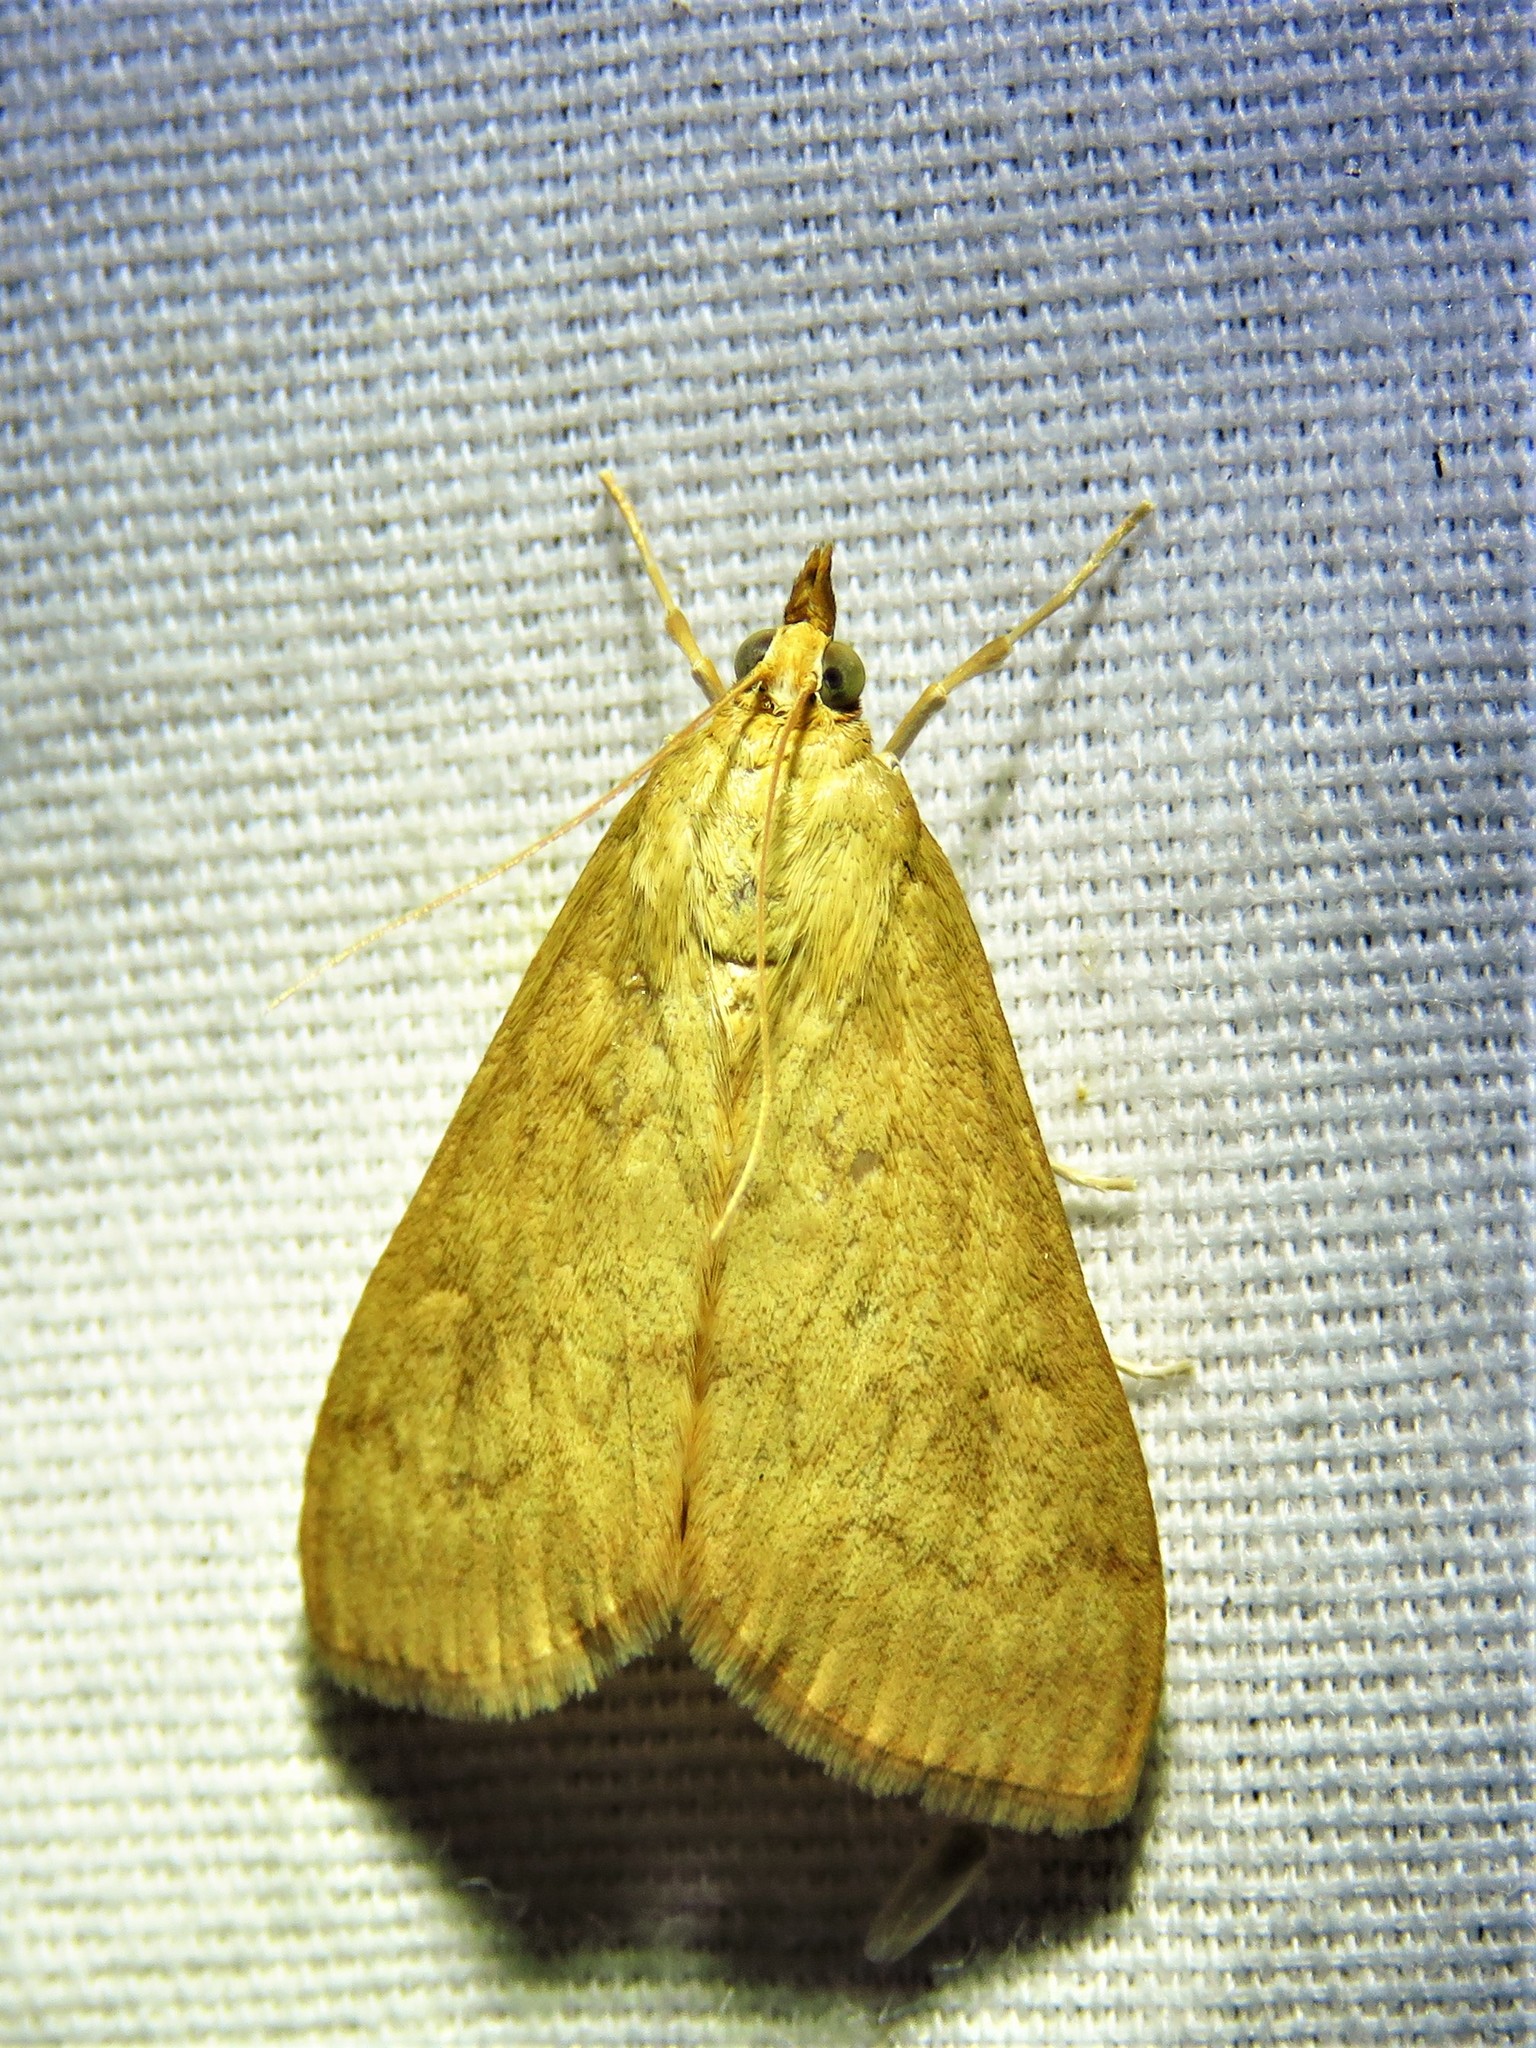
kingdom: Animalia
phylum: Arthropoda
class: Insecta
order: Lepidoptera
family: Crambidae
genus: Ostrinia
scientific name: Ostrinia penitalis
